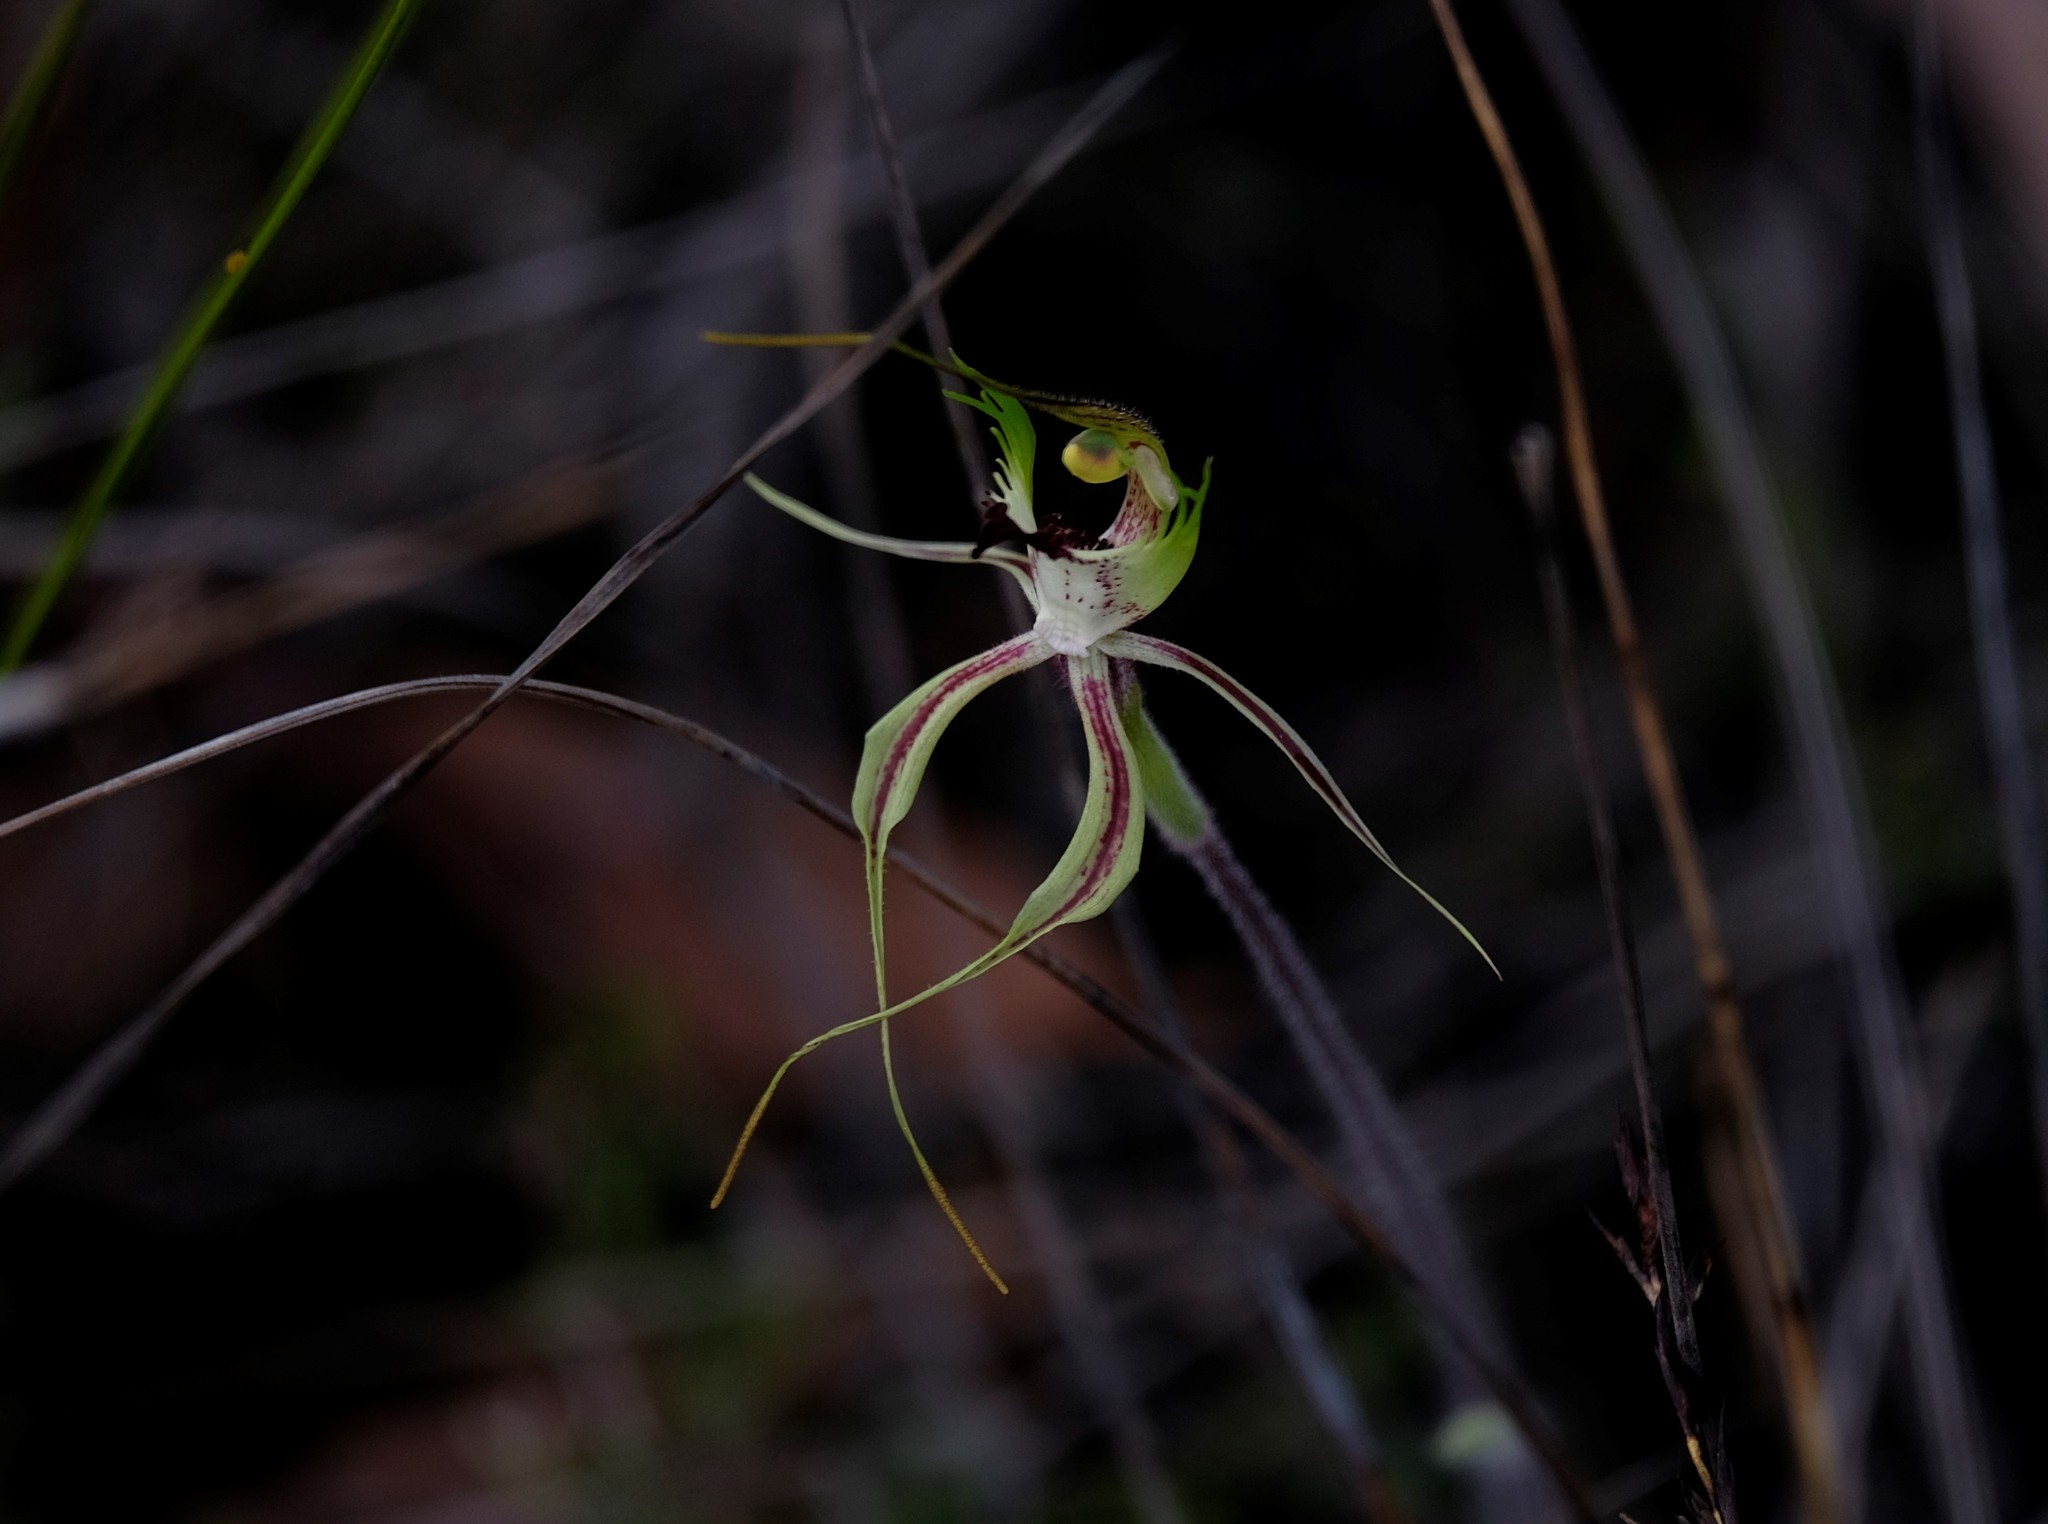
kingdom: Plantae
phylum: Tracheophyta
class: Liliopsida
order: Asparagales
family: Orchidaceae
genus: Caladenia
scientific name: Caladenia tentaculata
